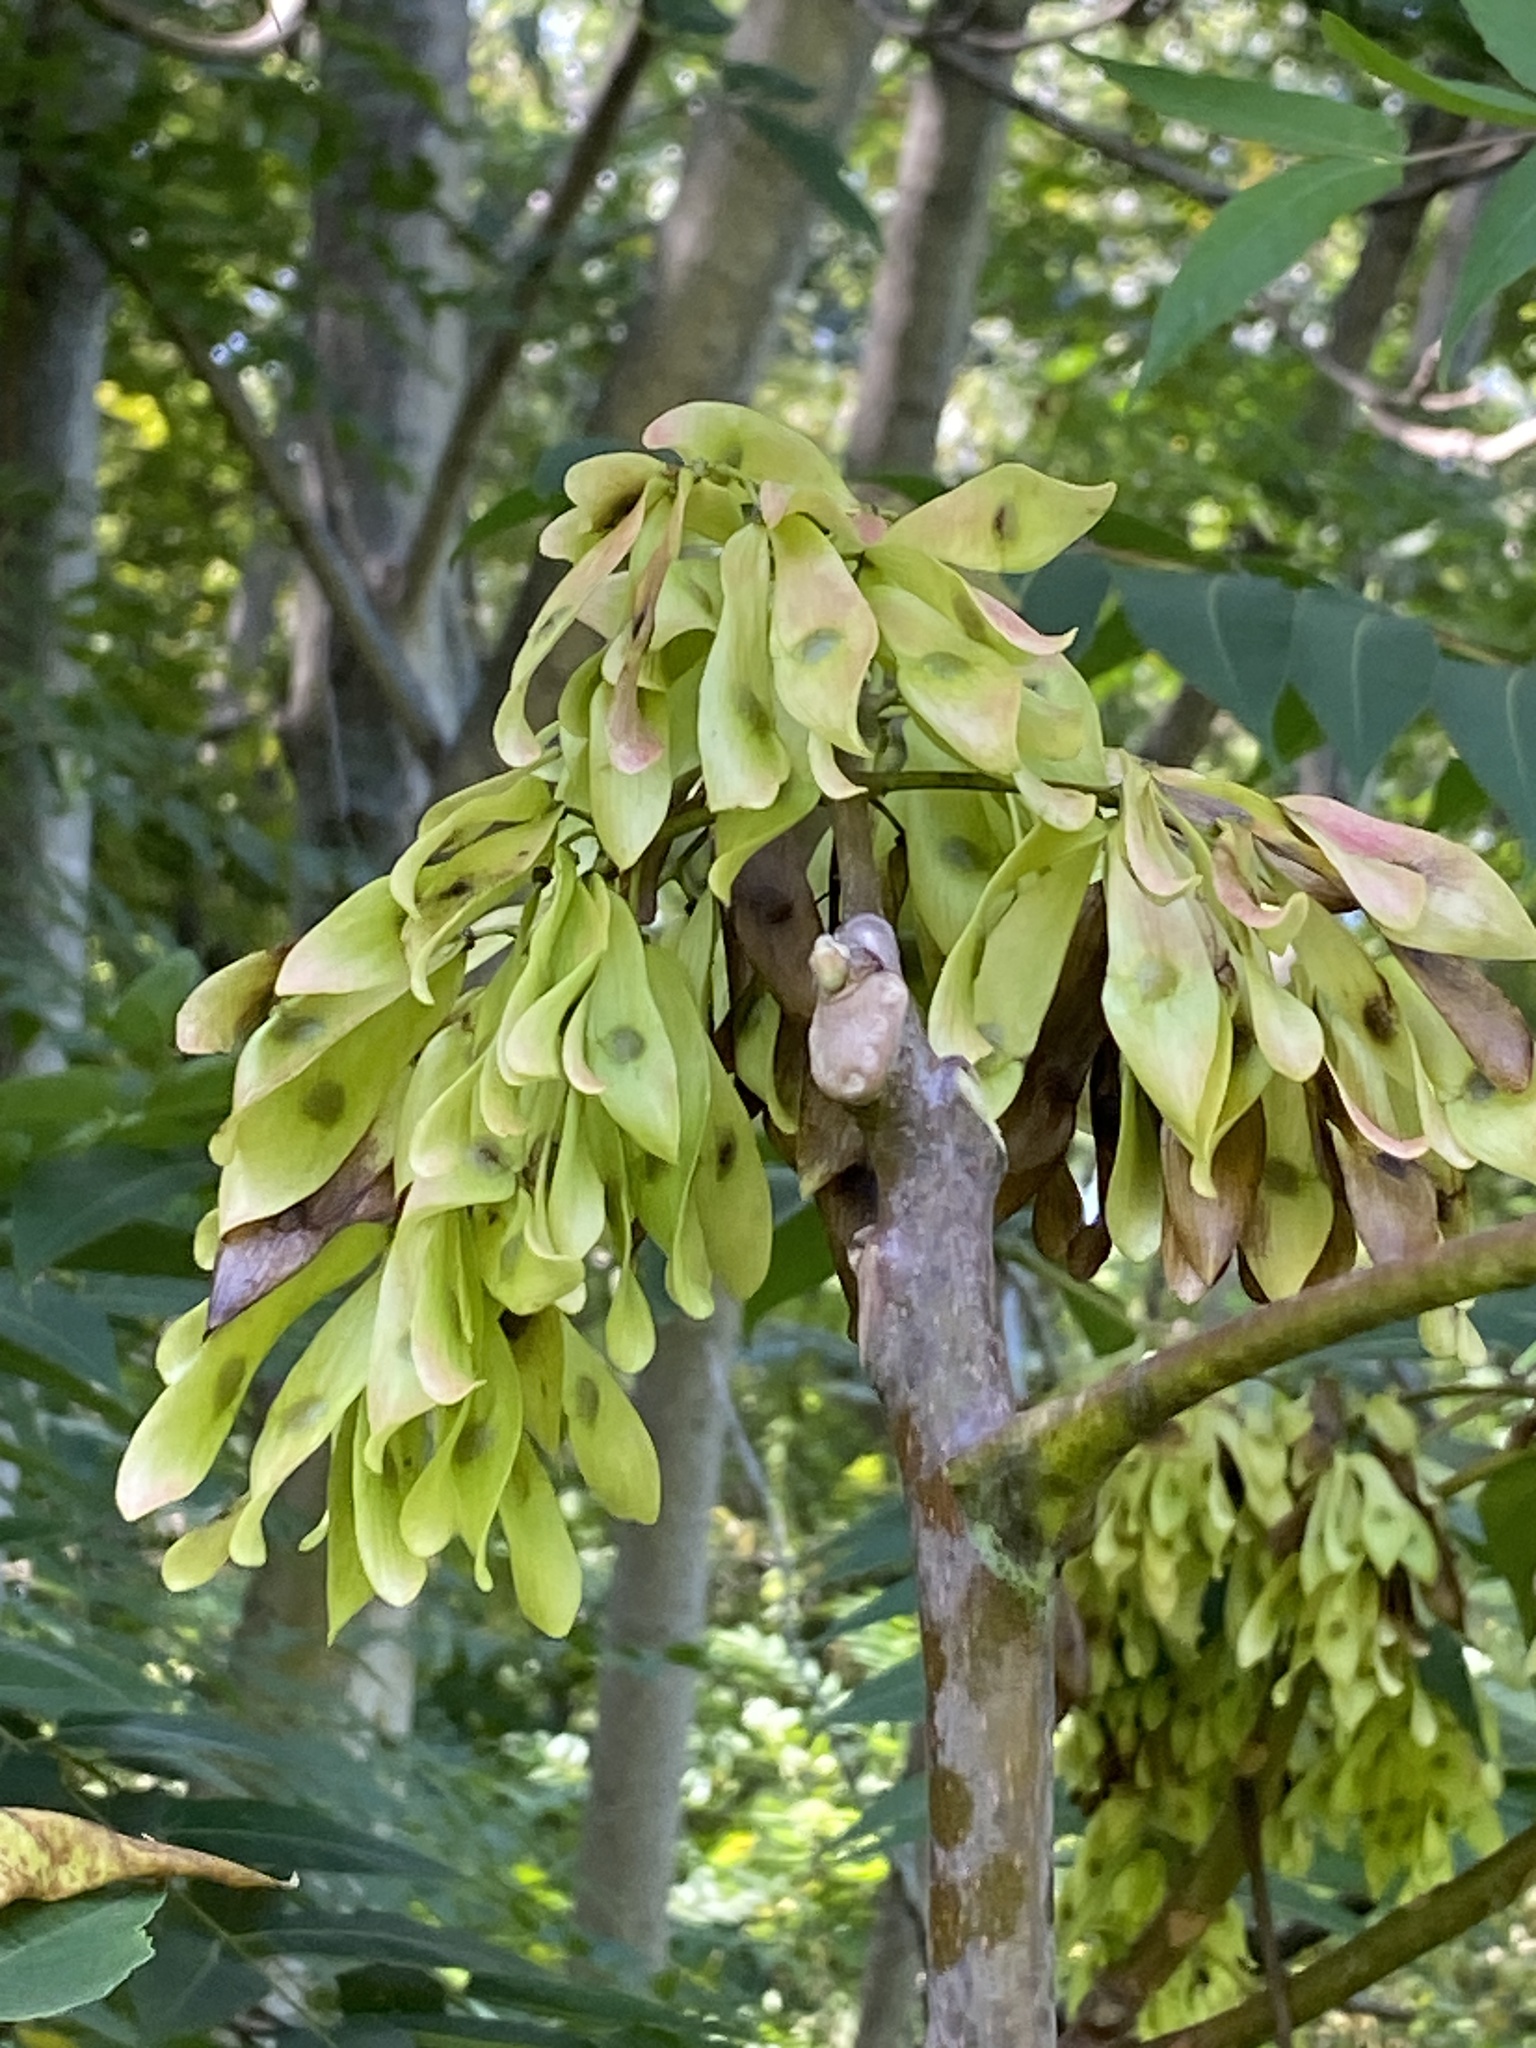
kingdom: Plantae
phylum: Tracheophyta
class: Magnoliopsida
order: Sapindales
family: Simaroubaceae
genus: Ailanthus
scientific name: Ailanthus altissima
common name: Tree-of-heaven
